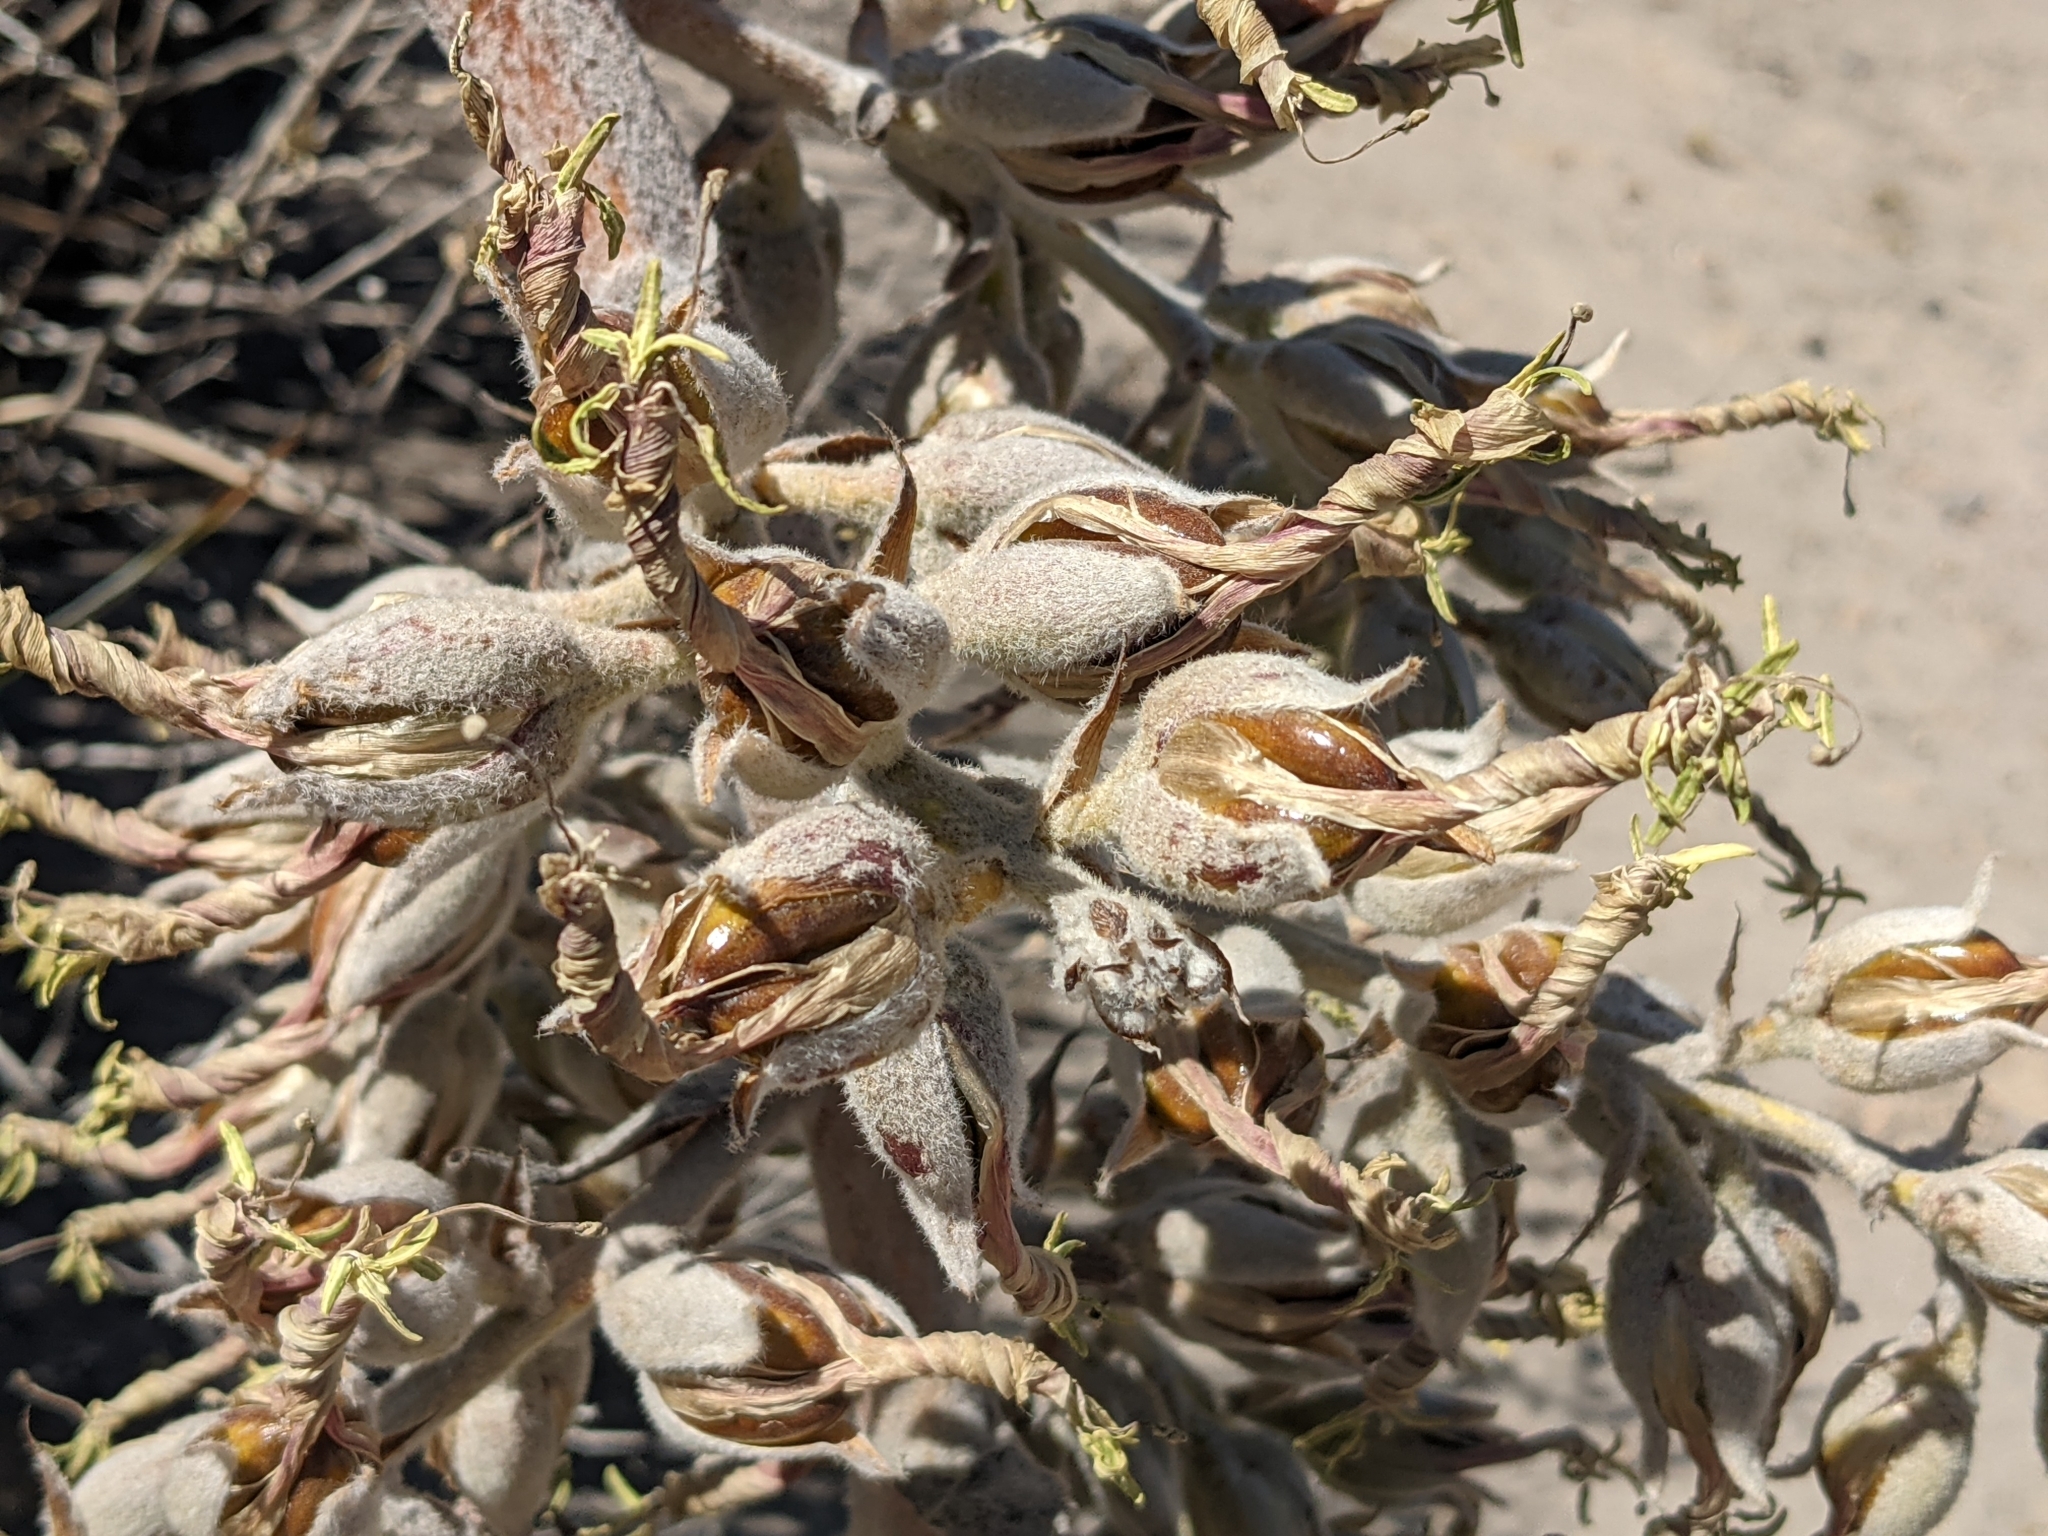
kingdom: Plantae
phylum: Tracheophyta
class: Liliopsida
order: Poales
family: Bromeliaceae
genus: Puya
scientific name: Puya cylindrica
